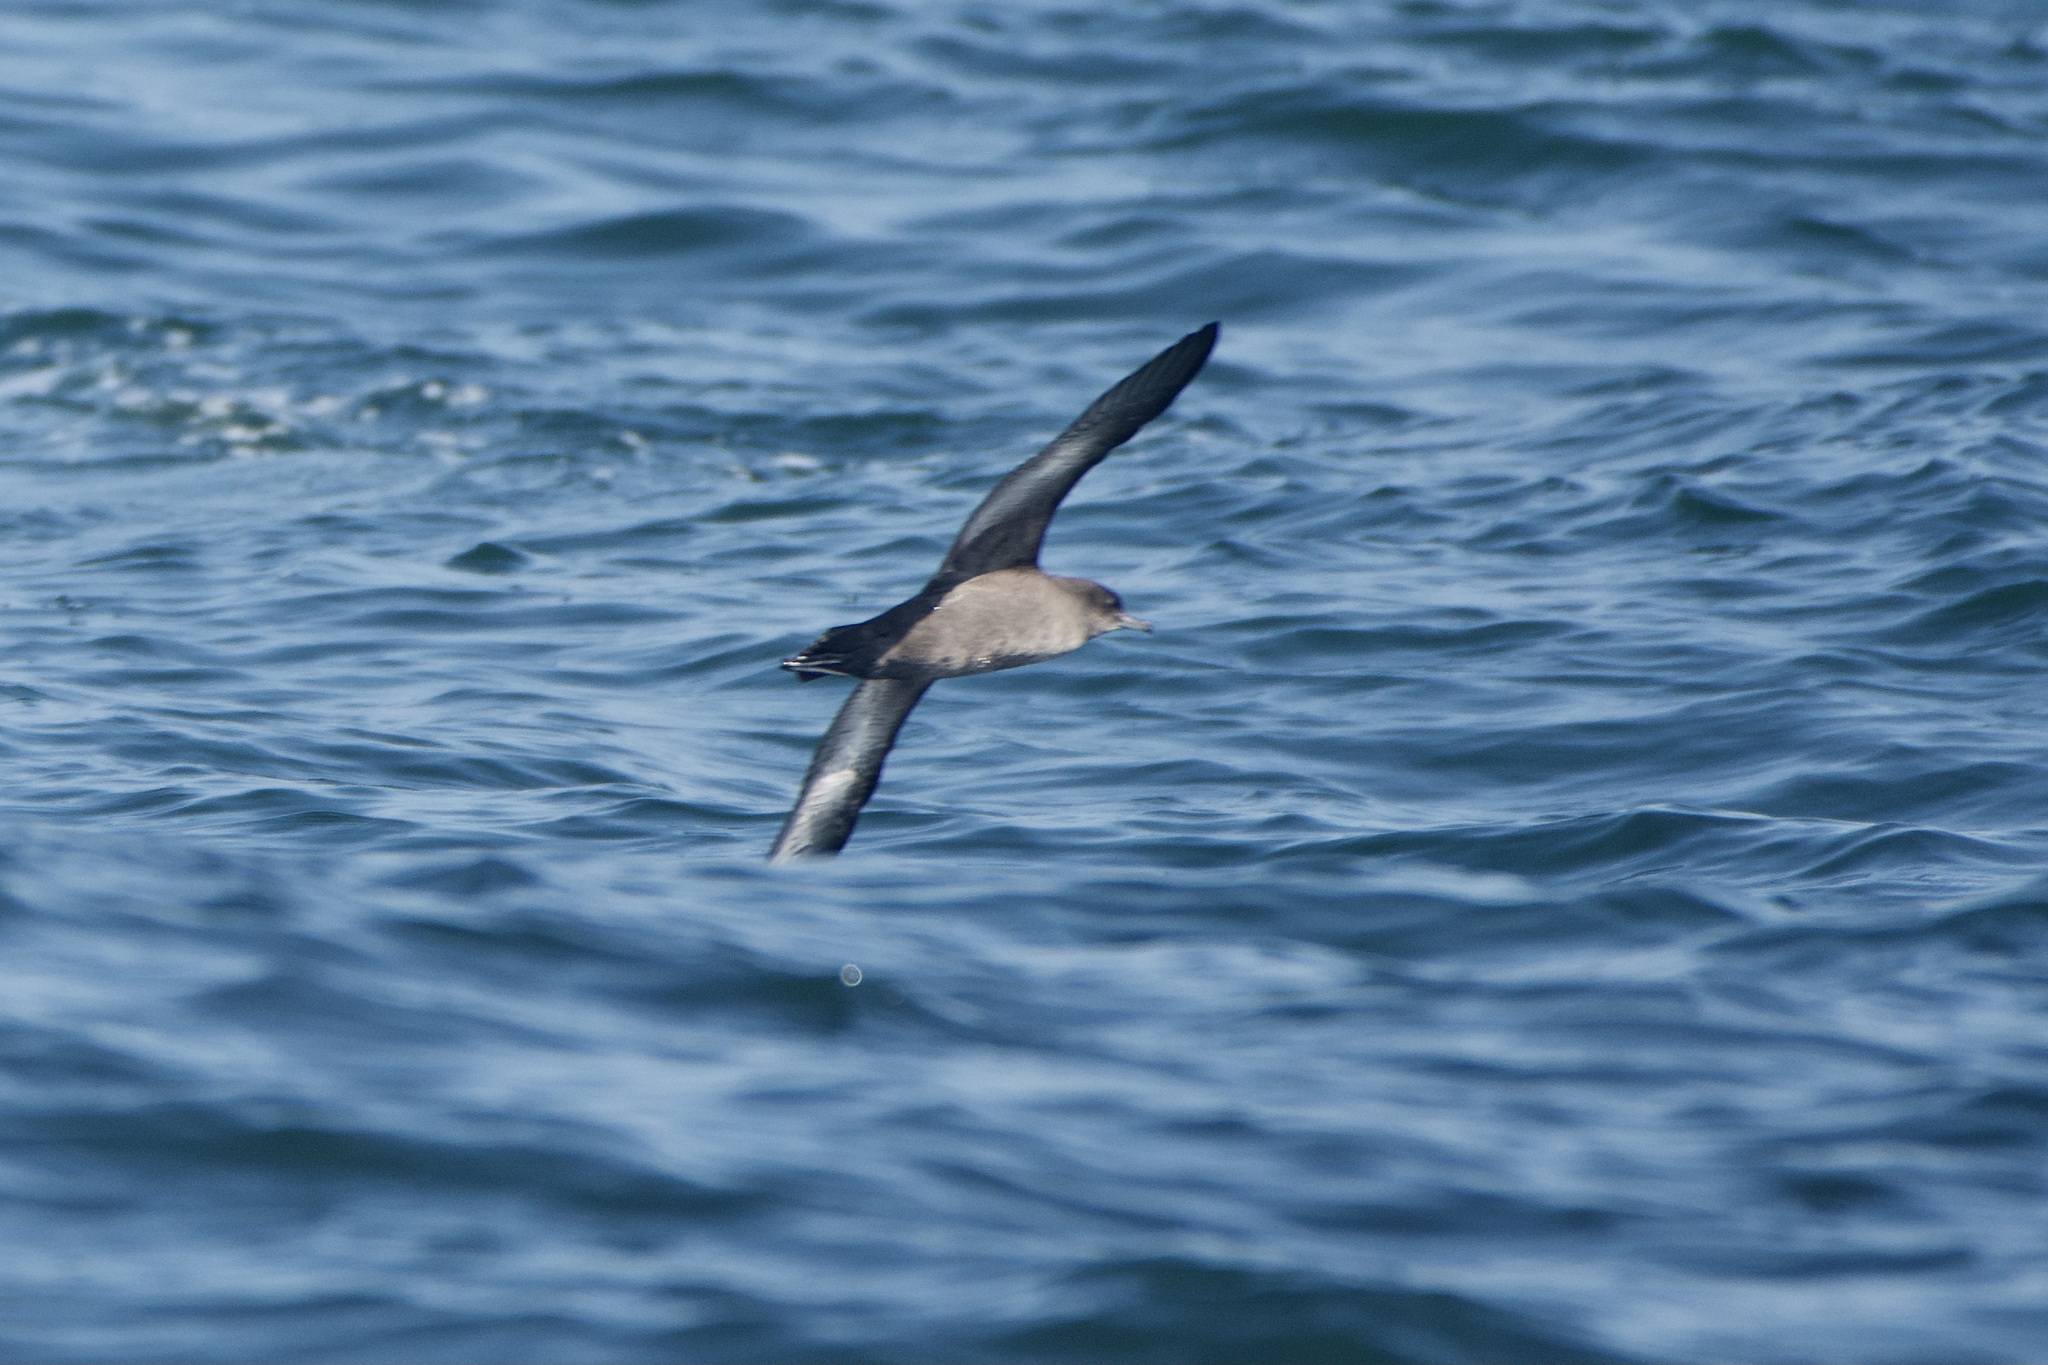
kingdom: Animalia
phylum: Chordata
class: Aves
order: Procellariiformes
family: Procellariidae
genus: Puffinus
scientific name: Puffinus tenuirostris
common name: Short-tailed shearwater
